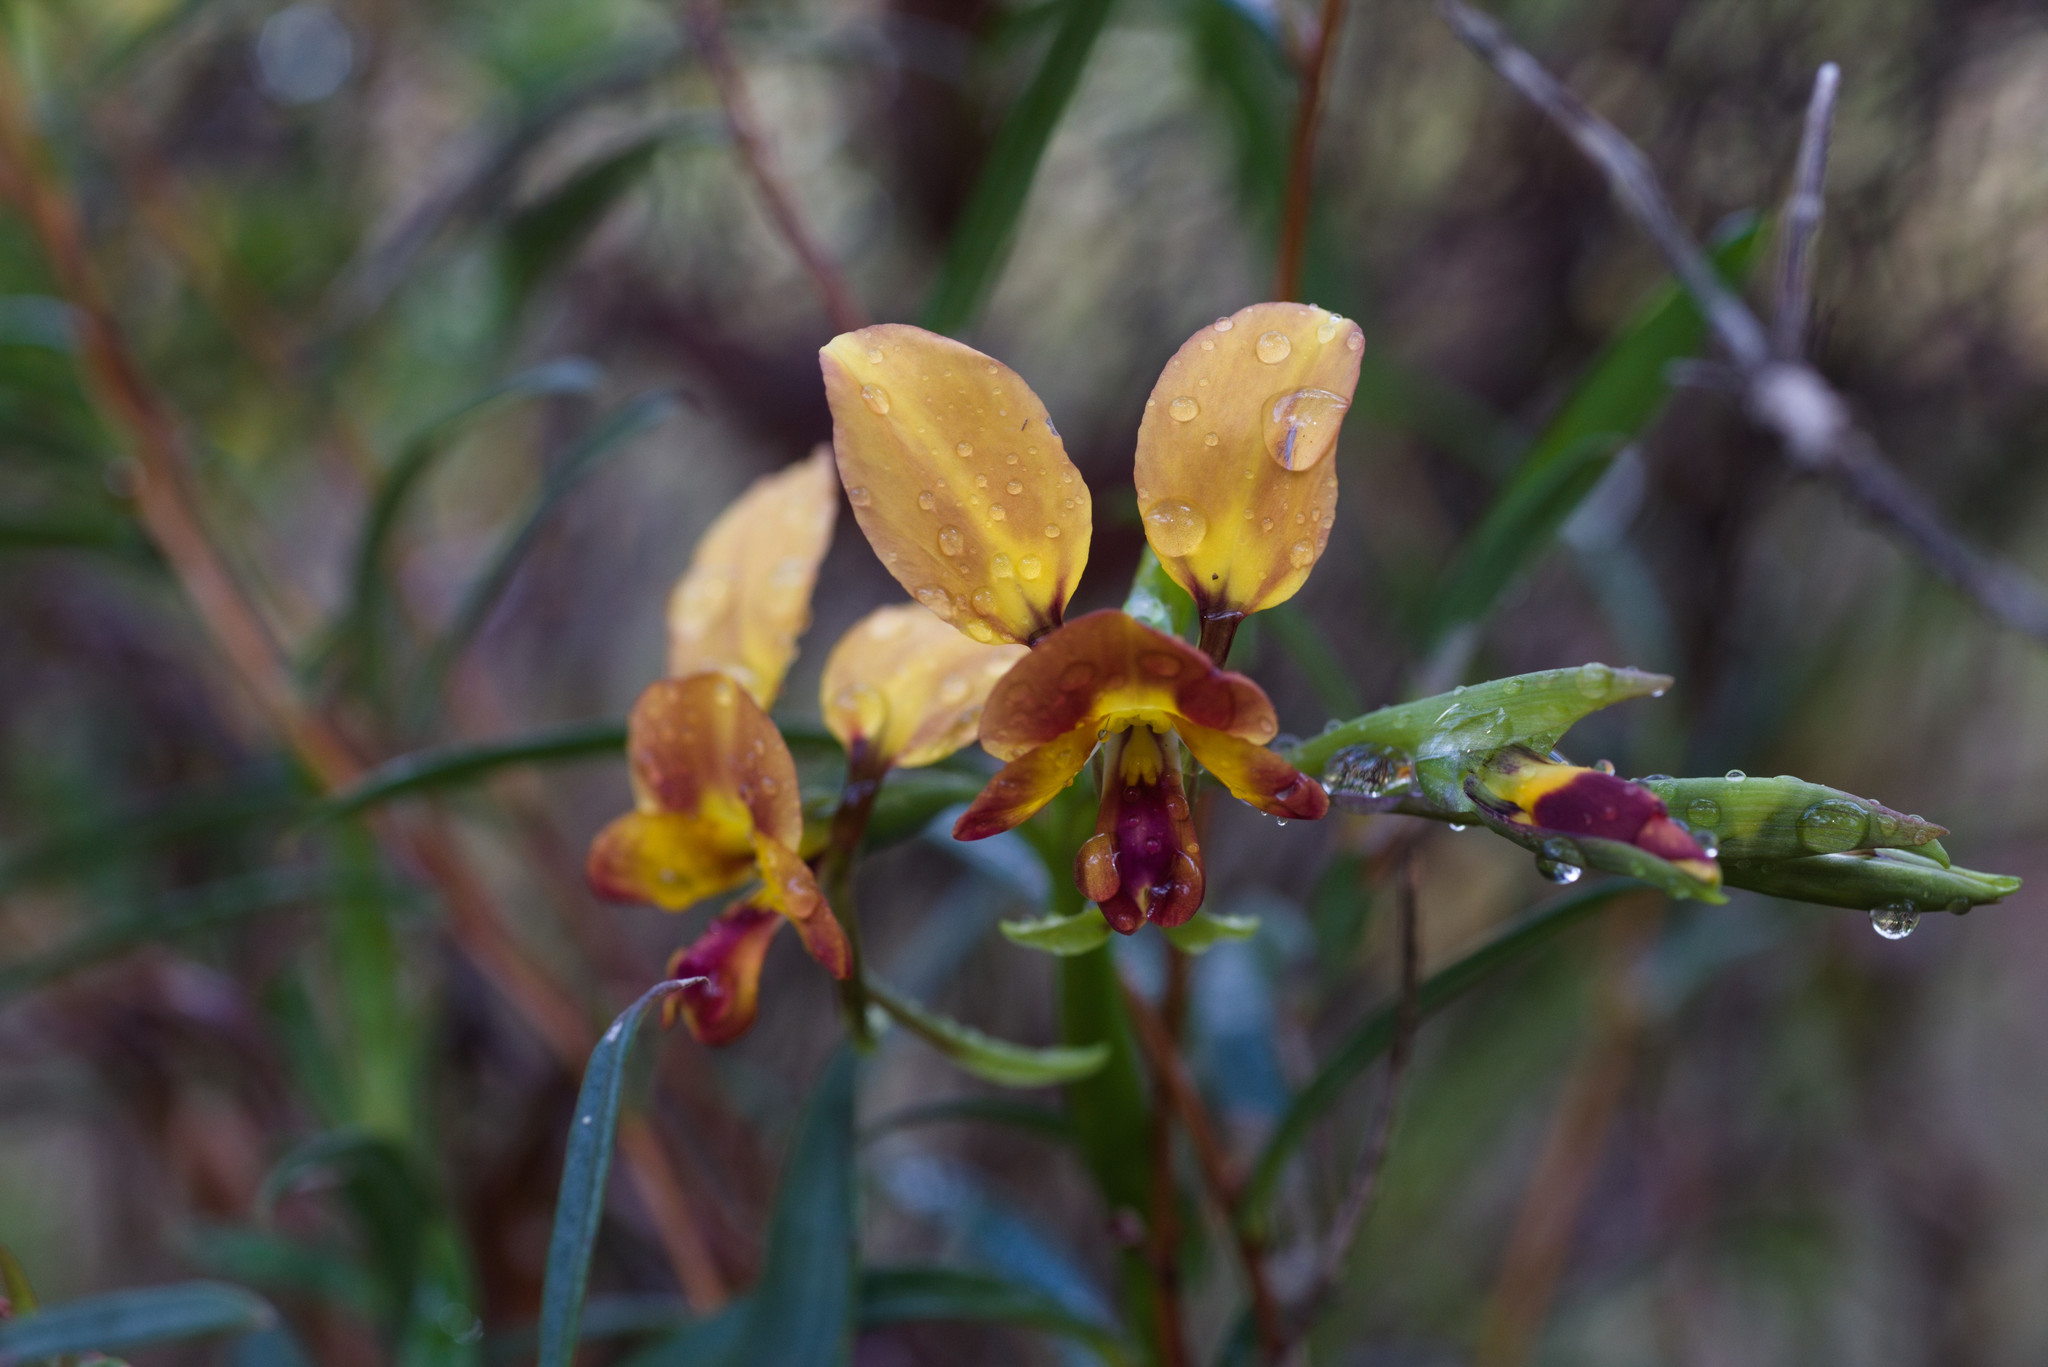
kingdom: Plantae
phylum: Tracheophyta
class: Liliopsida
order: Asparagales
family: Orchidaceae
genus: Diuris
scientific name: Diuris jonesii
